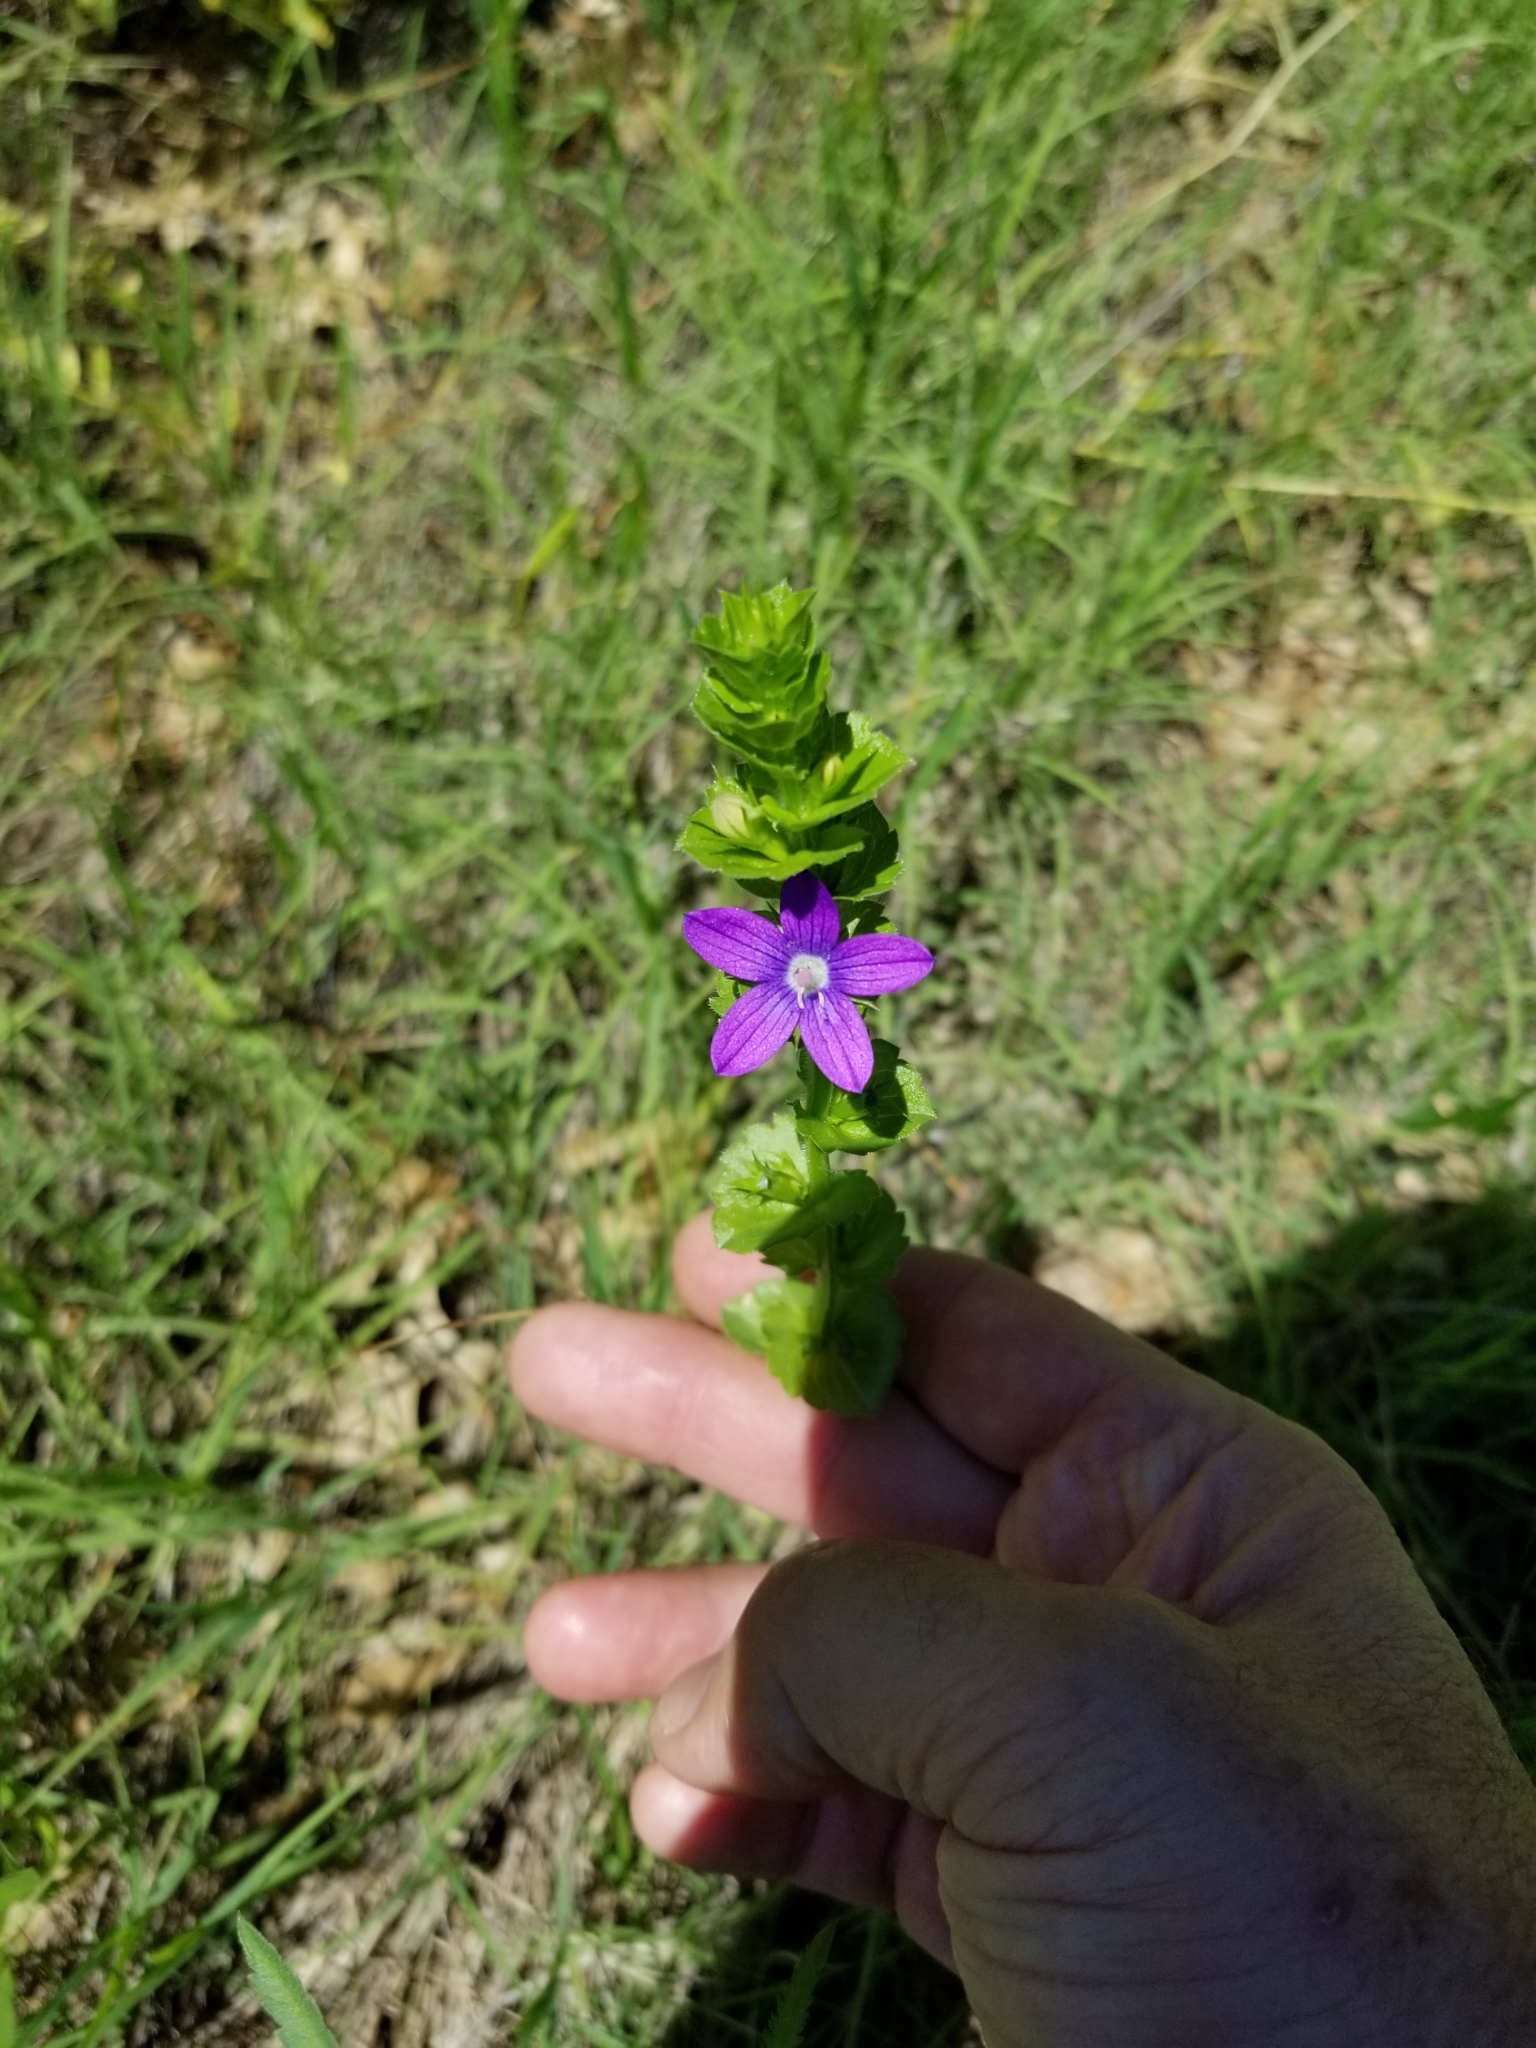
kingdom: Plantae
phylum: Tracheophyta
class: Magnoliopsida
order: Asterales
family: Campanulaceae
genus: Triodanis
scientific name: Triodanis perfoliata
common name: Clasping venus' looking-glass
